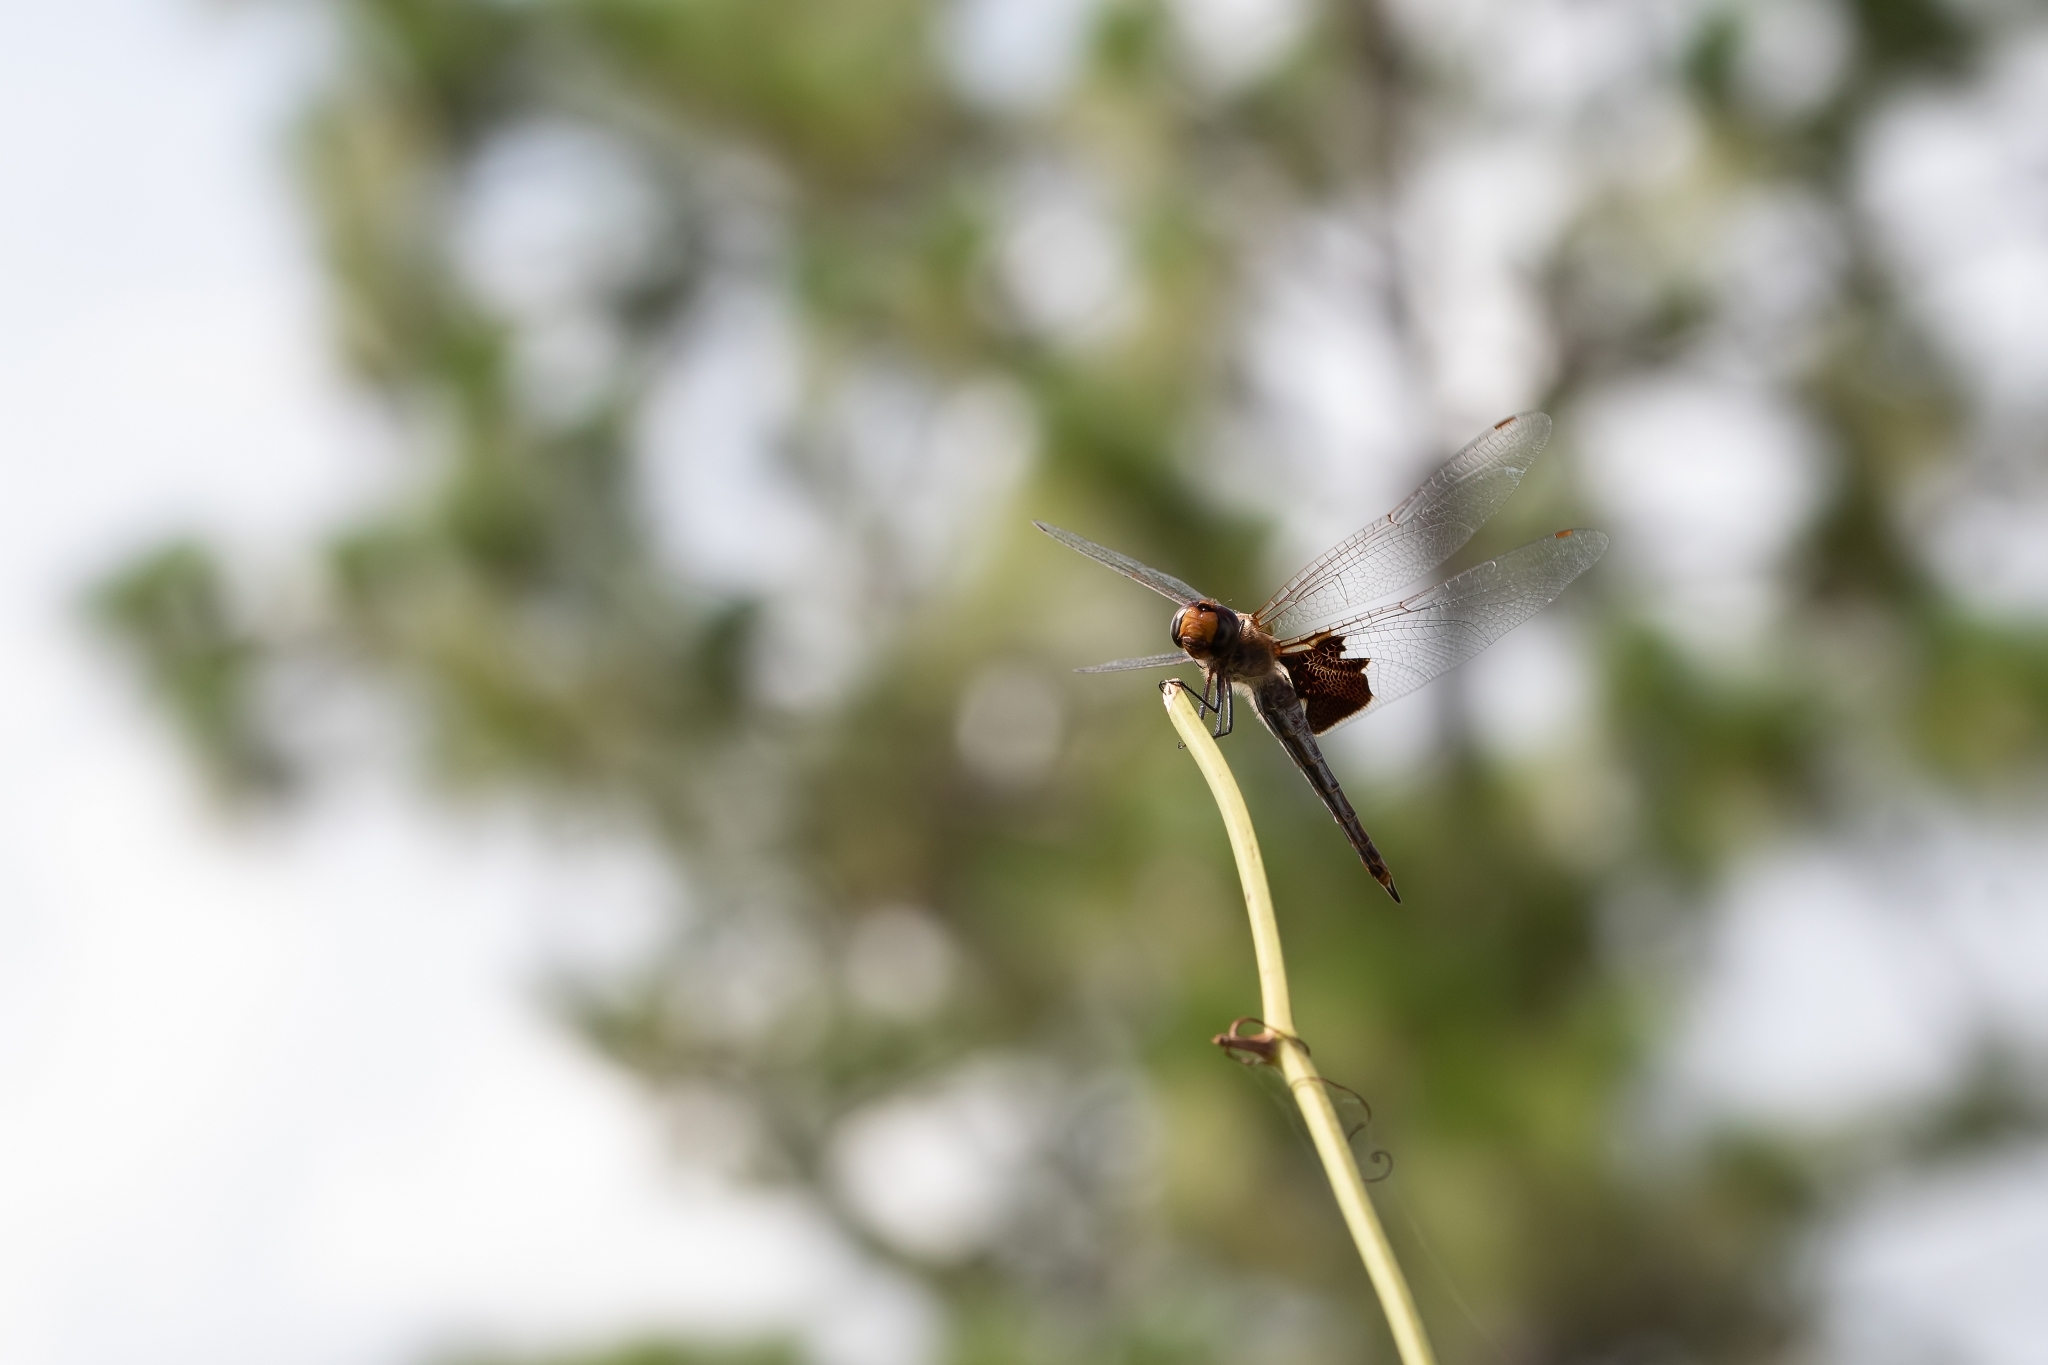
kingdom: Animalia
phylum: Arthropoda
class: Insecta
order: Odonata
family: Libellulidae
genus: Tramea
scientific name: Tramea onusta
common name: Red saddlebags
